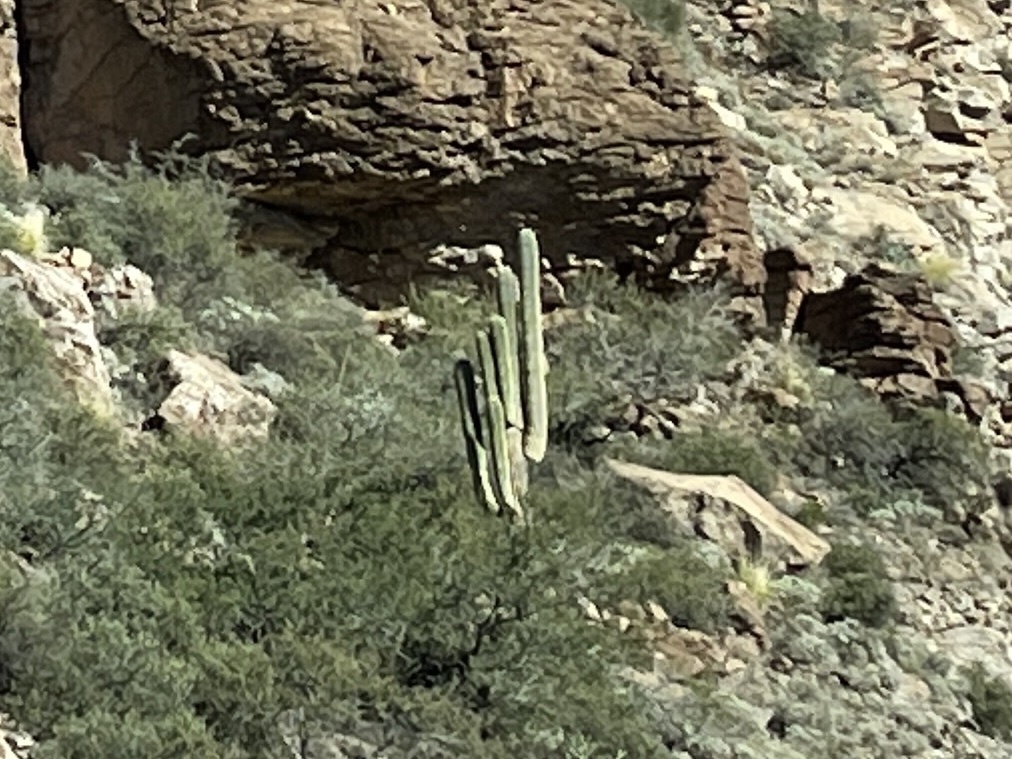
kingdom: Plantae
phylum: Tracheophyta
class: Magnoliopsida
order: Caryophyllales
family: Cactaceae
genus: Carnegiea
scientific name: Carnegiea gigantea
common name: Saguaro
